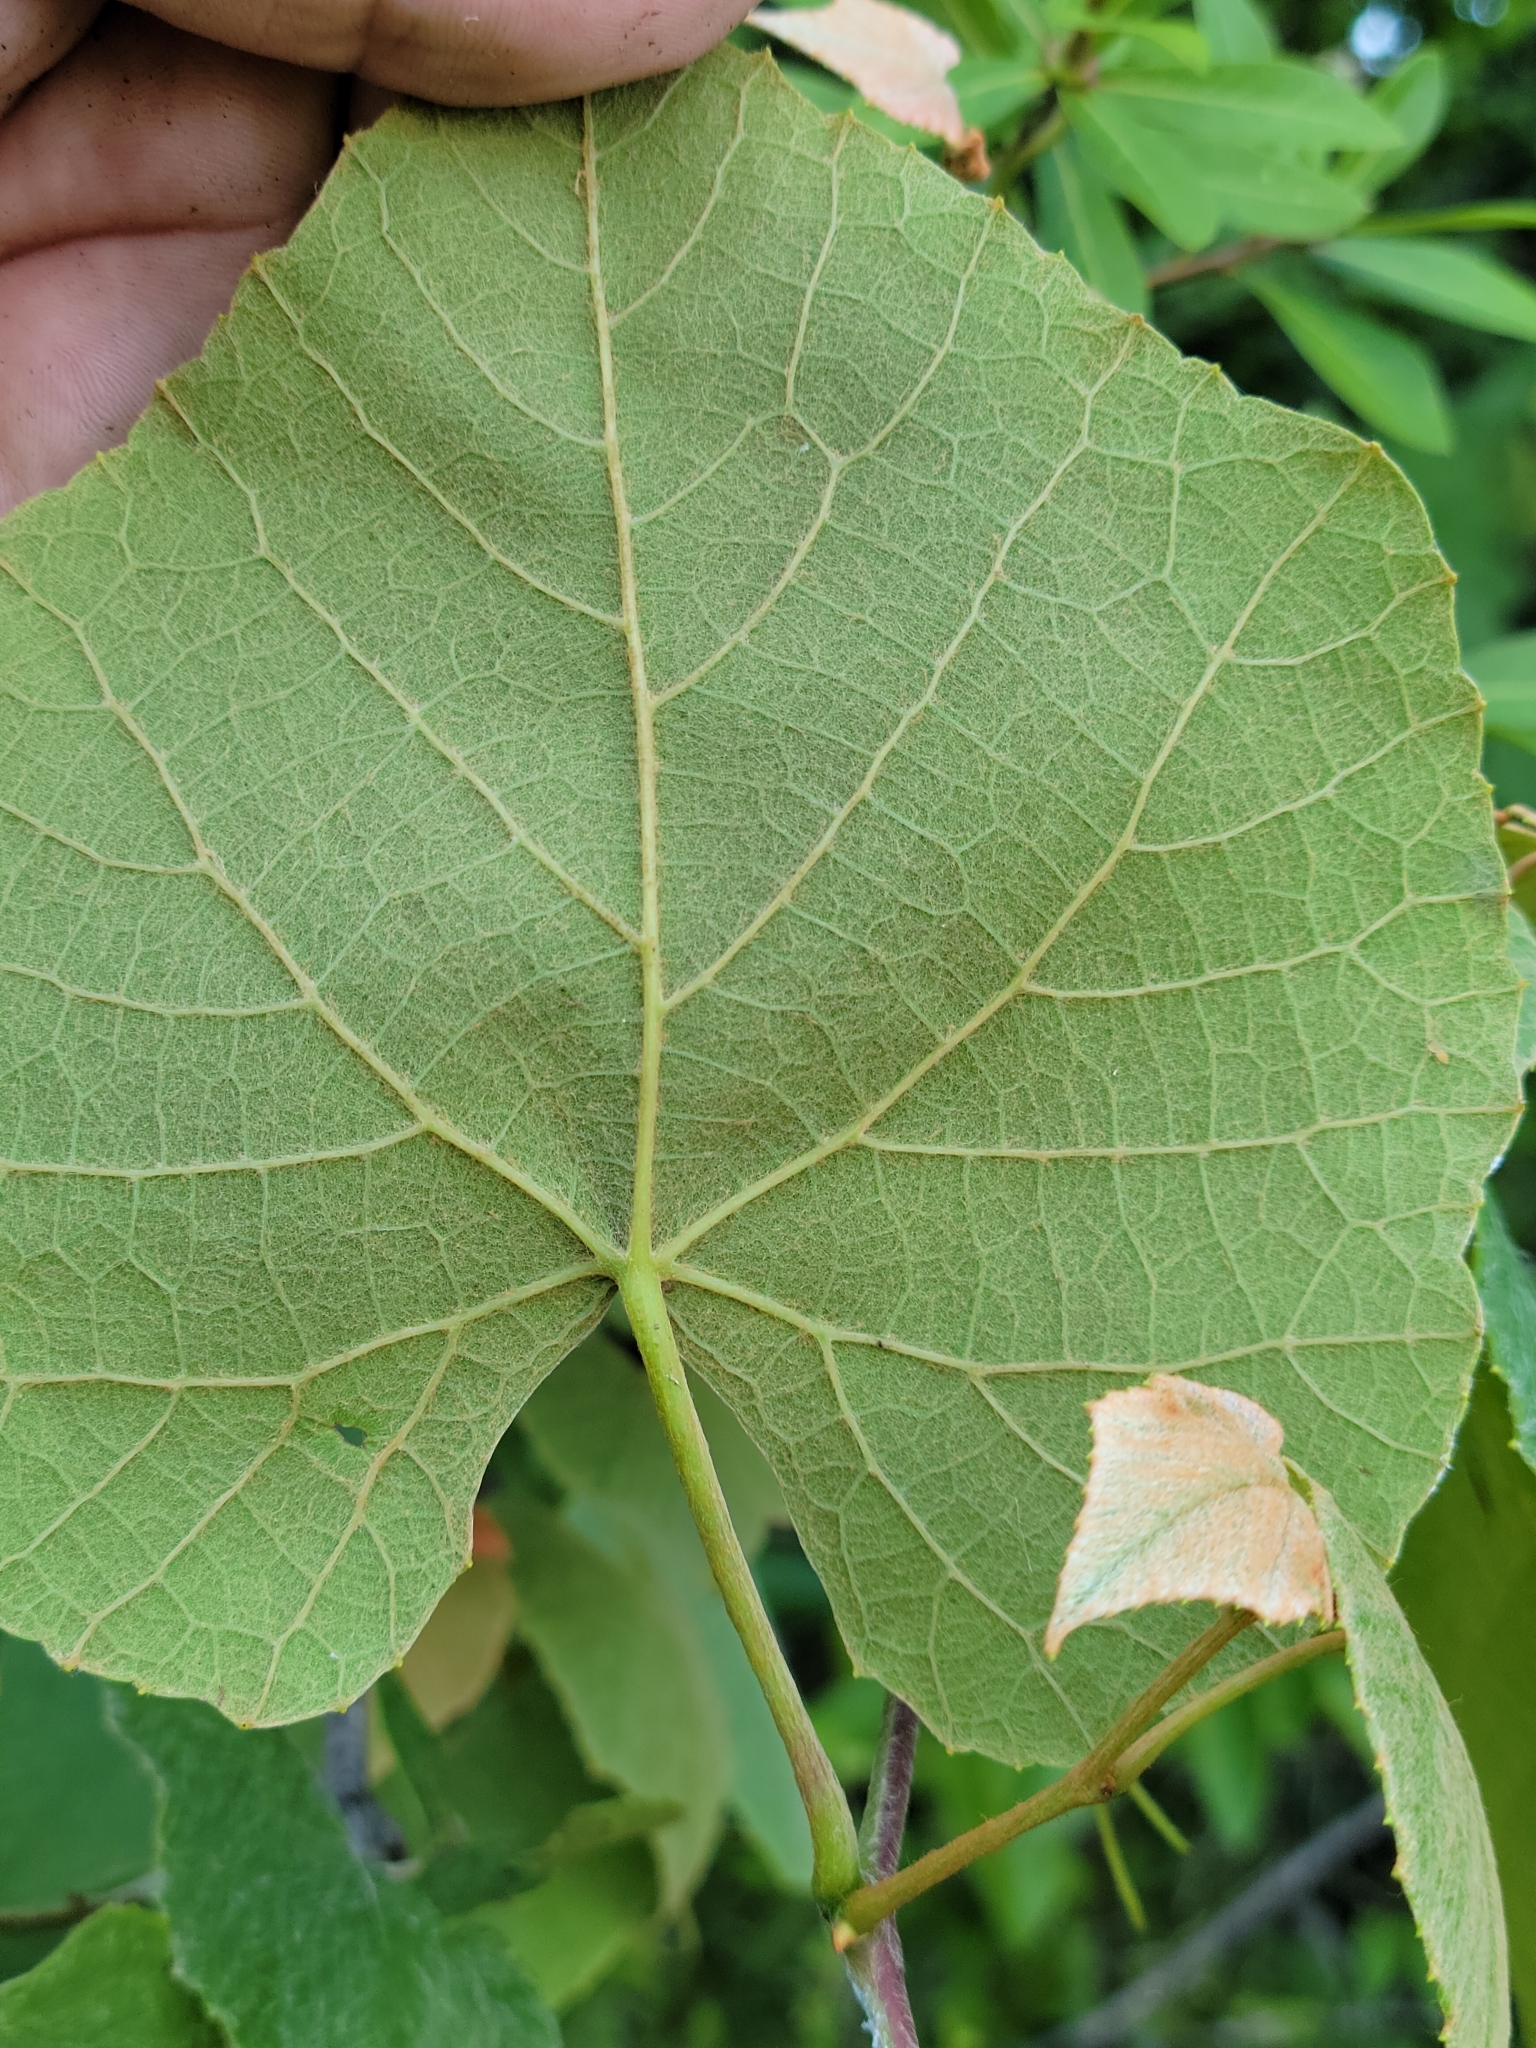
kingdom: Plantae
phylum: Tracheophyta
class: Magnoliopsida
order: Vitales
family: Vitaceae
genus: Vitis
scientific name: Vitis cinerea
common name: Ashy grape
